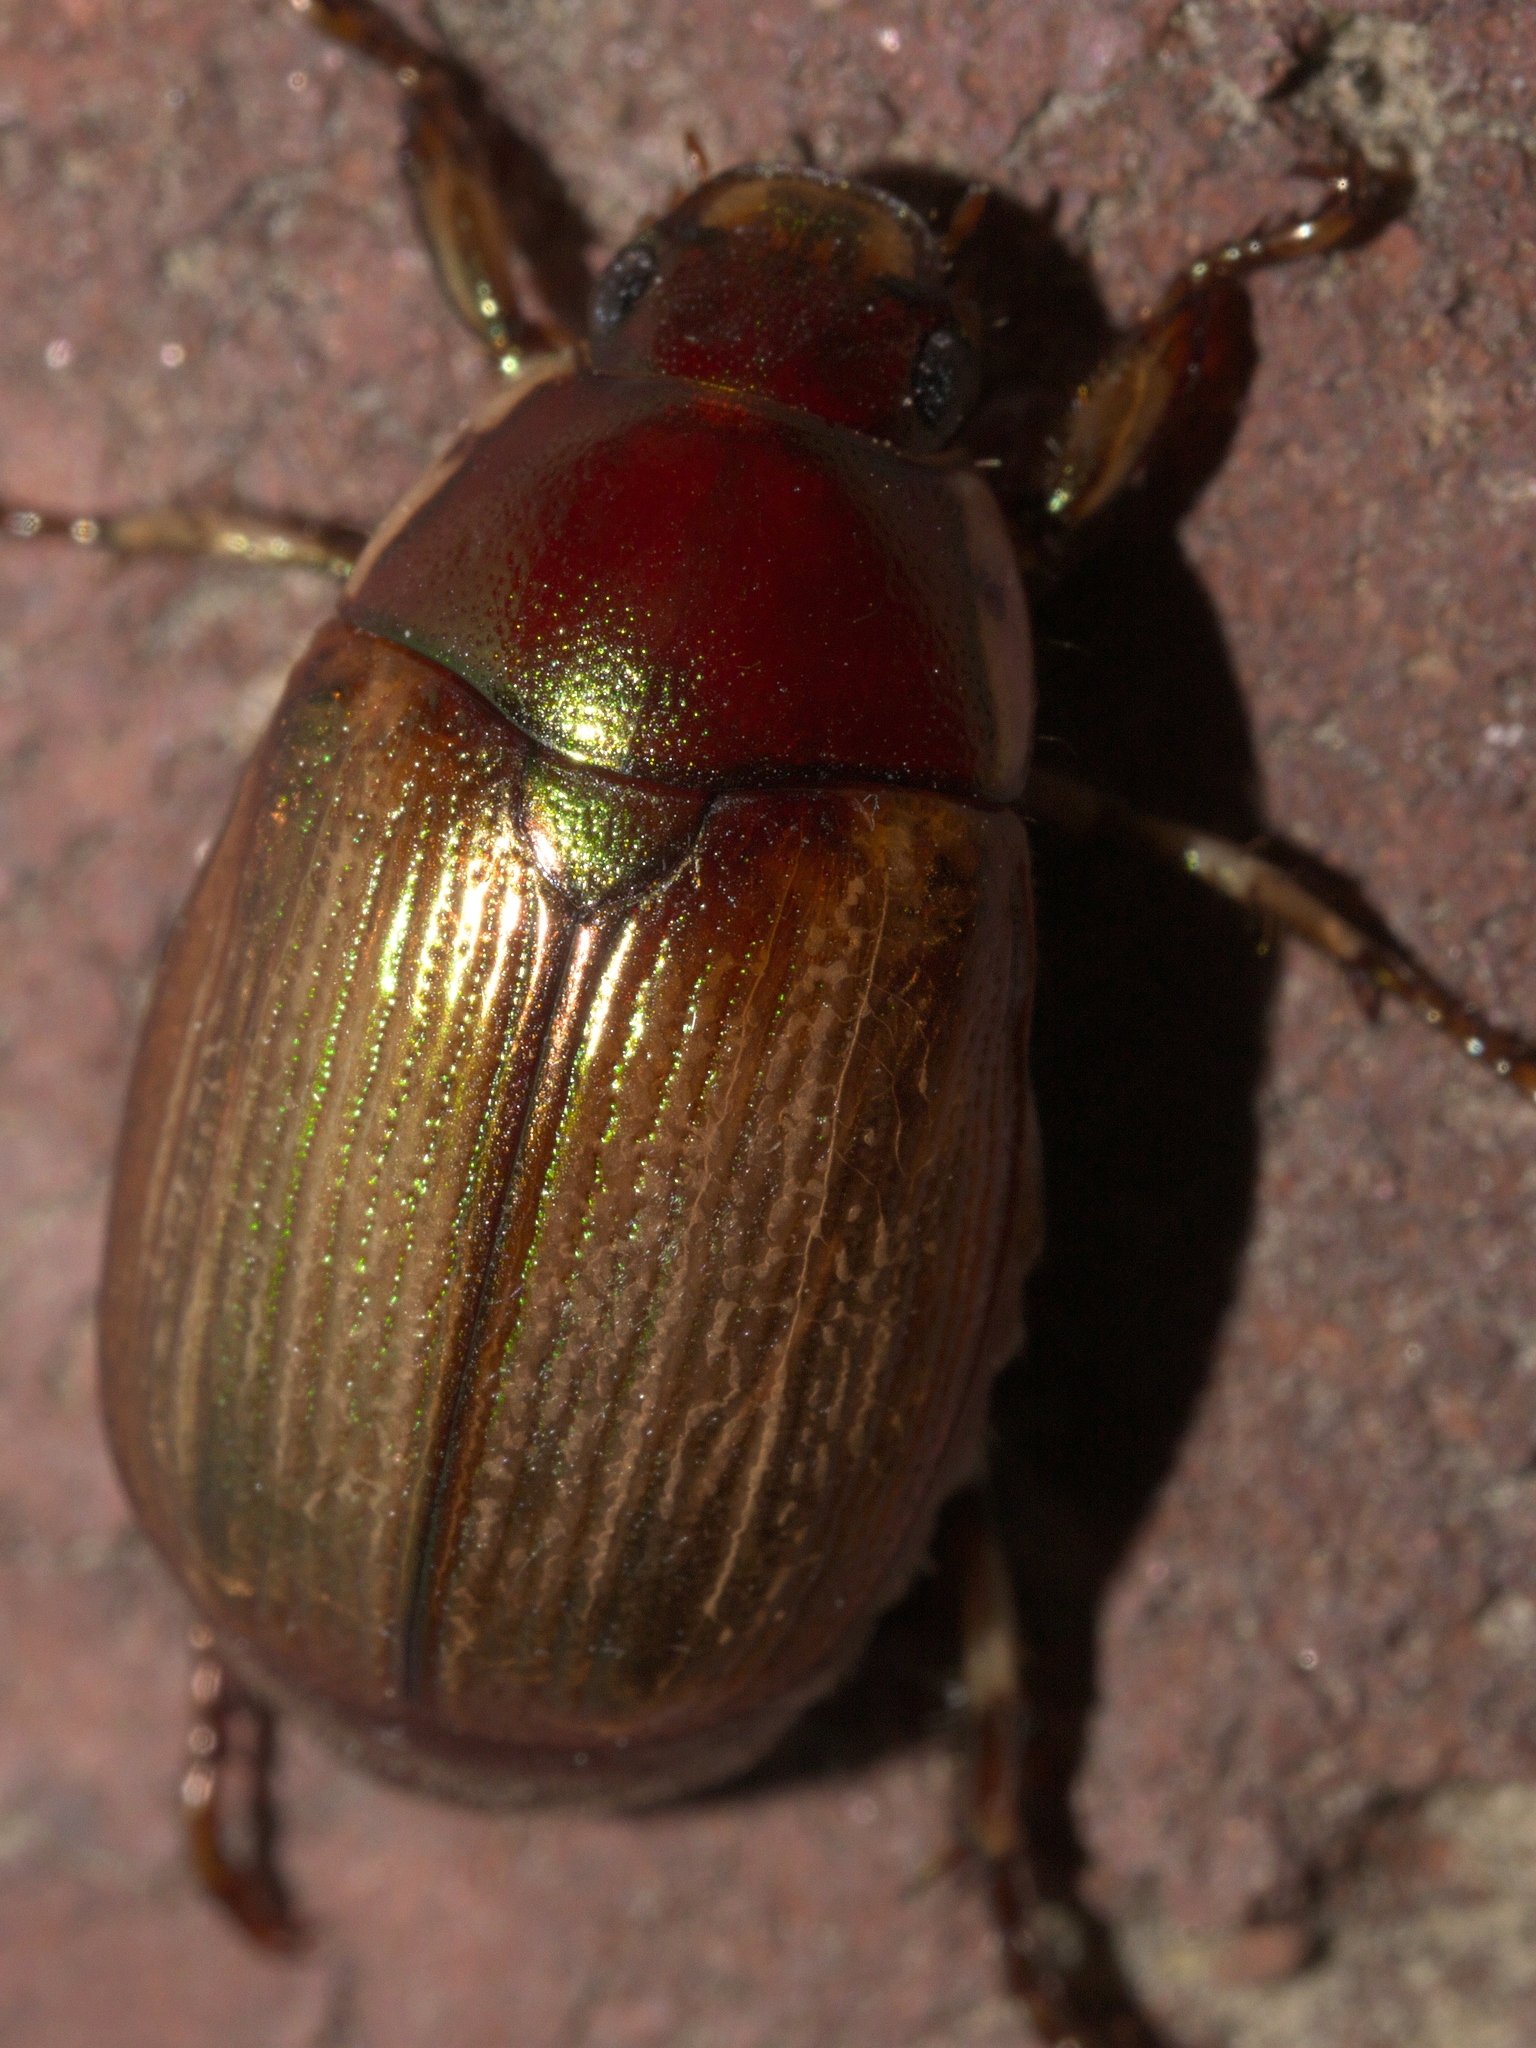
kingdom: Animalia
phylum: Arthropoda
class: Insecta
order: Coleoptera
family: Scarabaeidae
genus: Callistethus
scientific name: Callistethus marginatus
